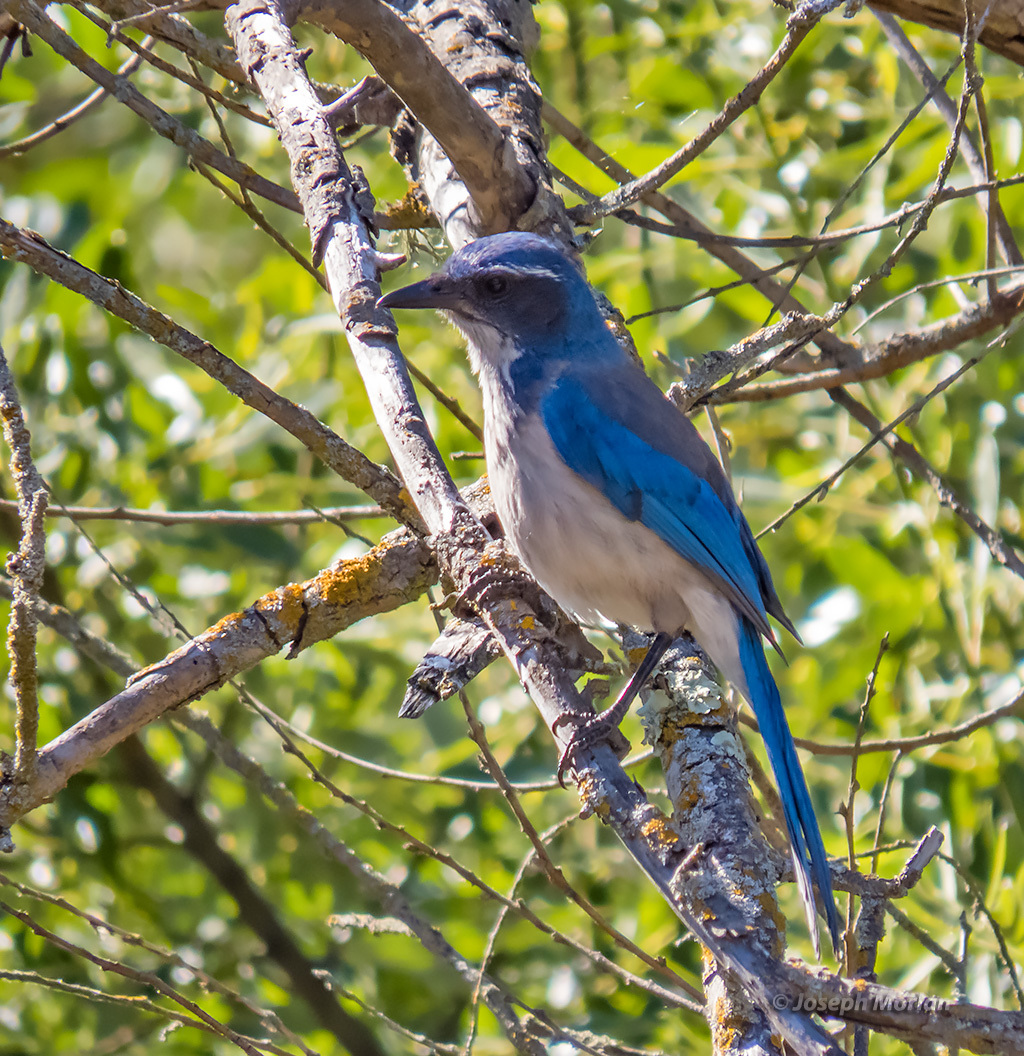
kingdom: Animalia
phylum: Chordata
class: Aves
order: Passeriformes
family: Corvidae
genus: Aphelocoma
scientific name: Aphelocoma californica
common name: California scrub-jay
